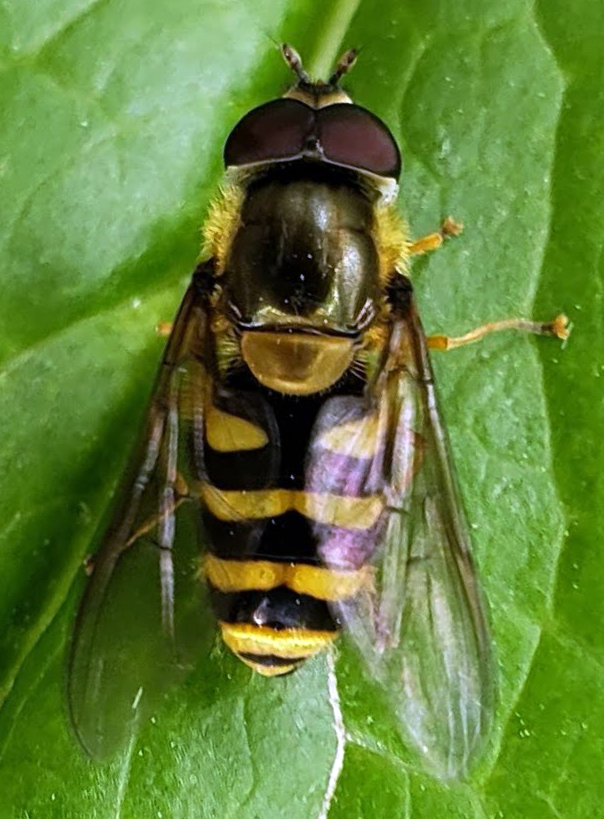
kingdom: Animalia
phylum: Arthropoda
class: Insecta
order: Diptera
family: Syrphidae
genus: Syrphus
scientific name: Syrphus
